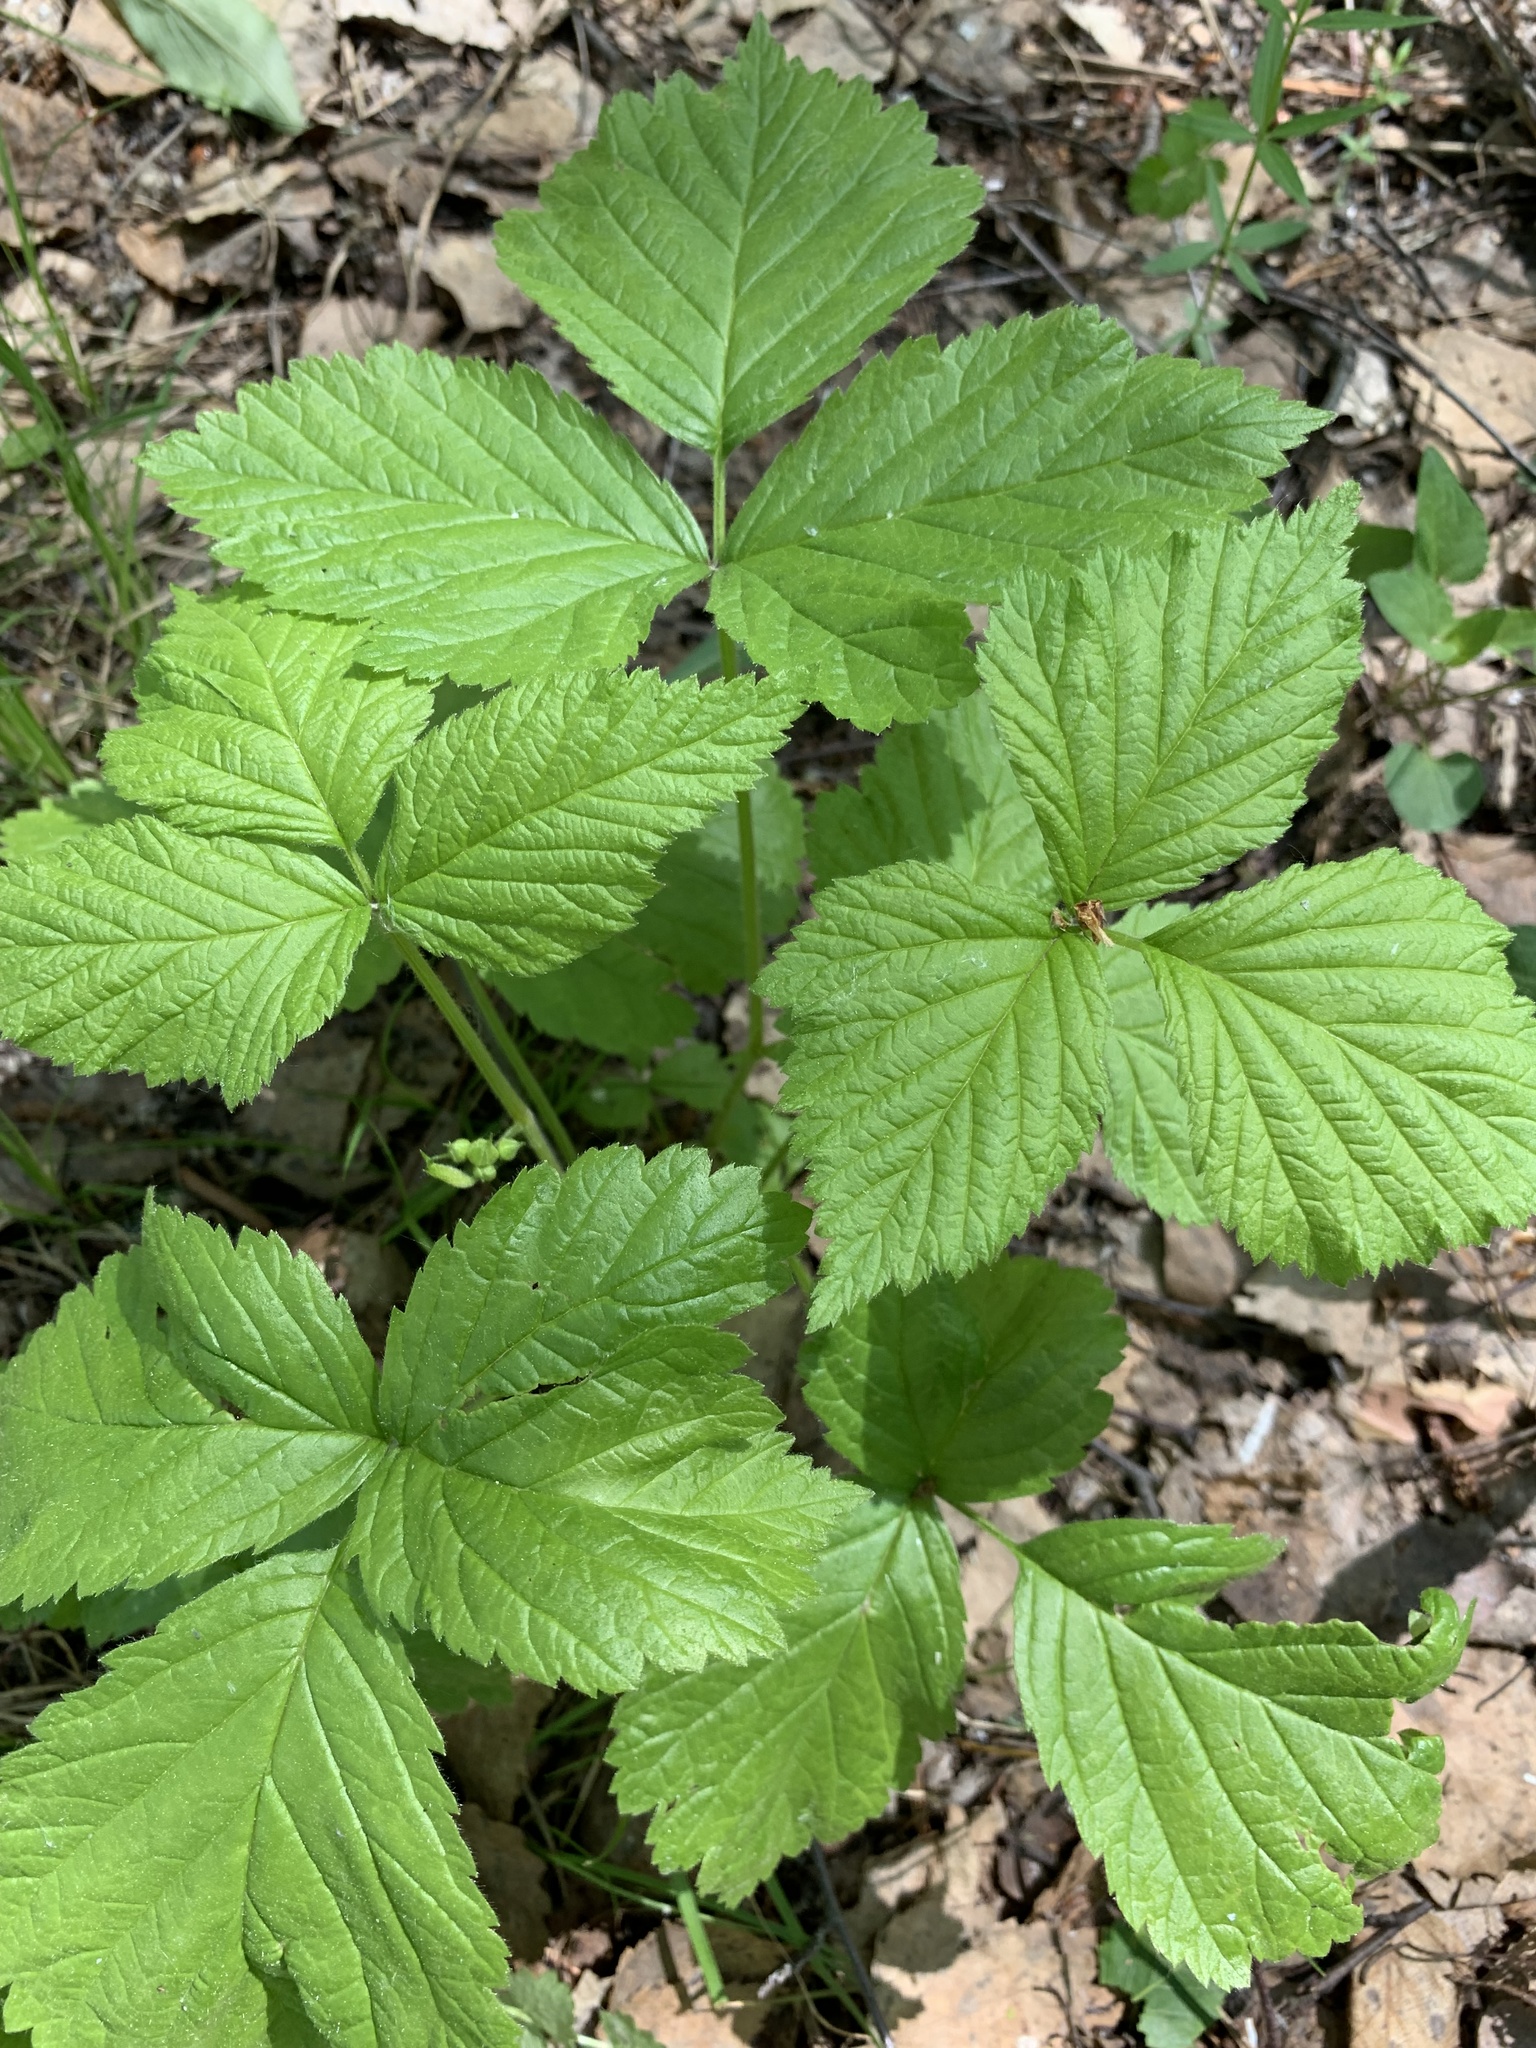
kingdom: Plantae
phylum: Tracheophyta
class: Magnoliopsida
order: Rosales
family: Rosaceae
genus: Rubus
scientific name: Rubus saxatilis
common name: Stone bramble
